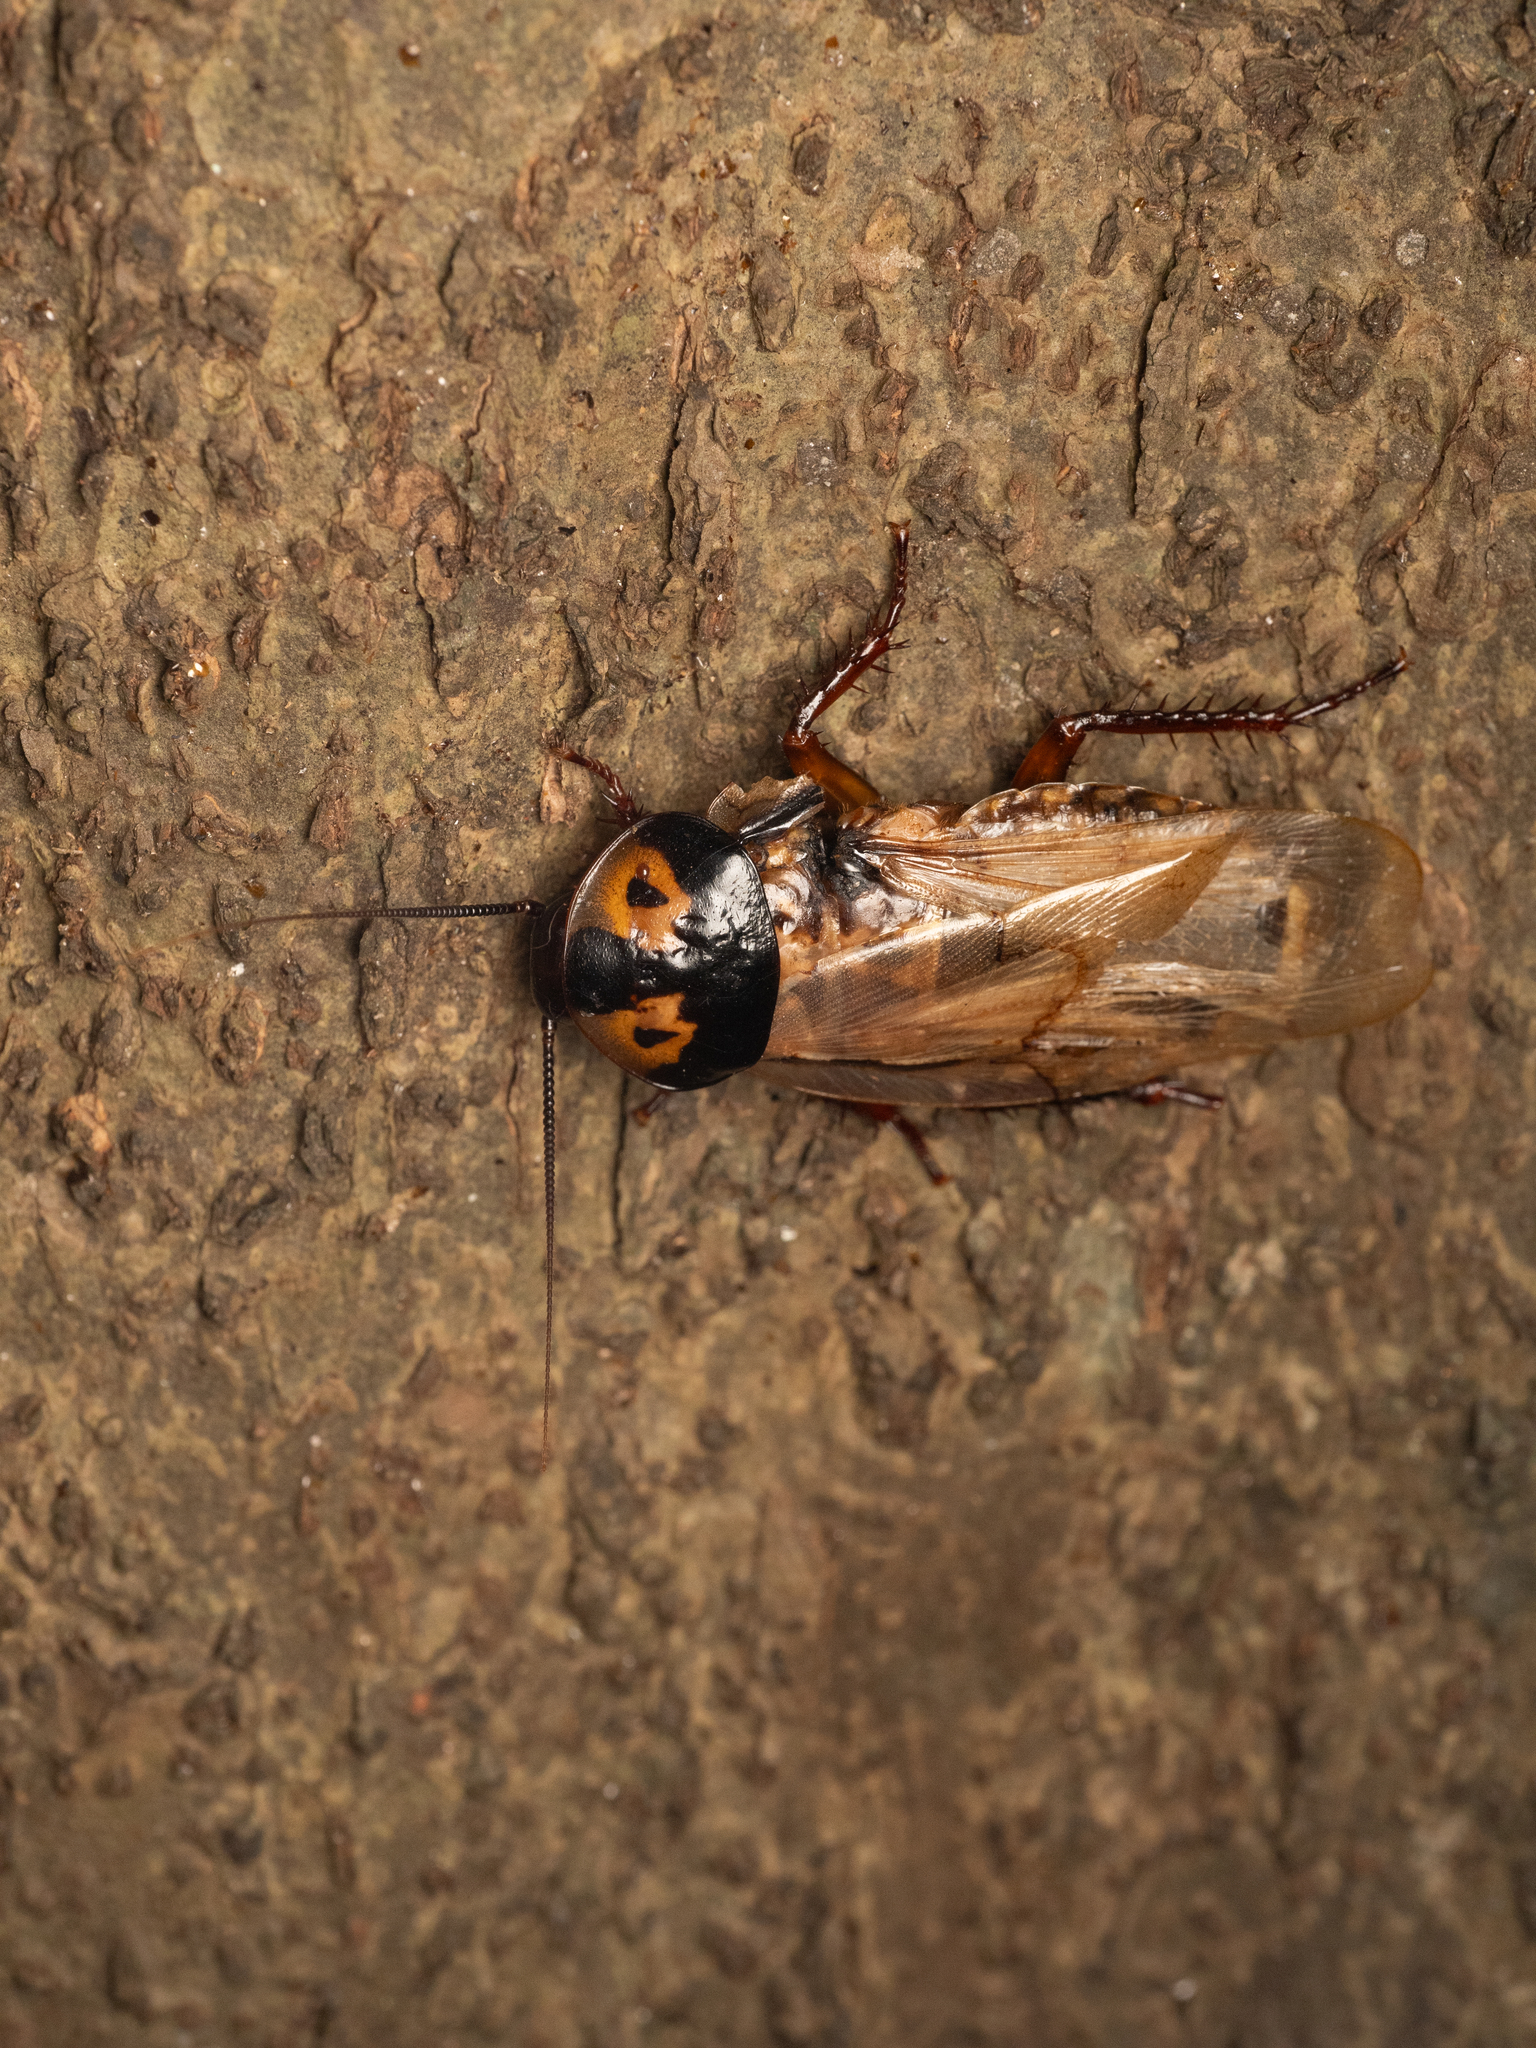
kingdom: Animalia
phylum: Arthropoda
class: Insecta
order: Blattodea
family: Blaberidae
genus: Eublaberus
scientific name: Eublaberus marajoara
